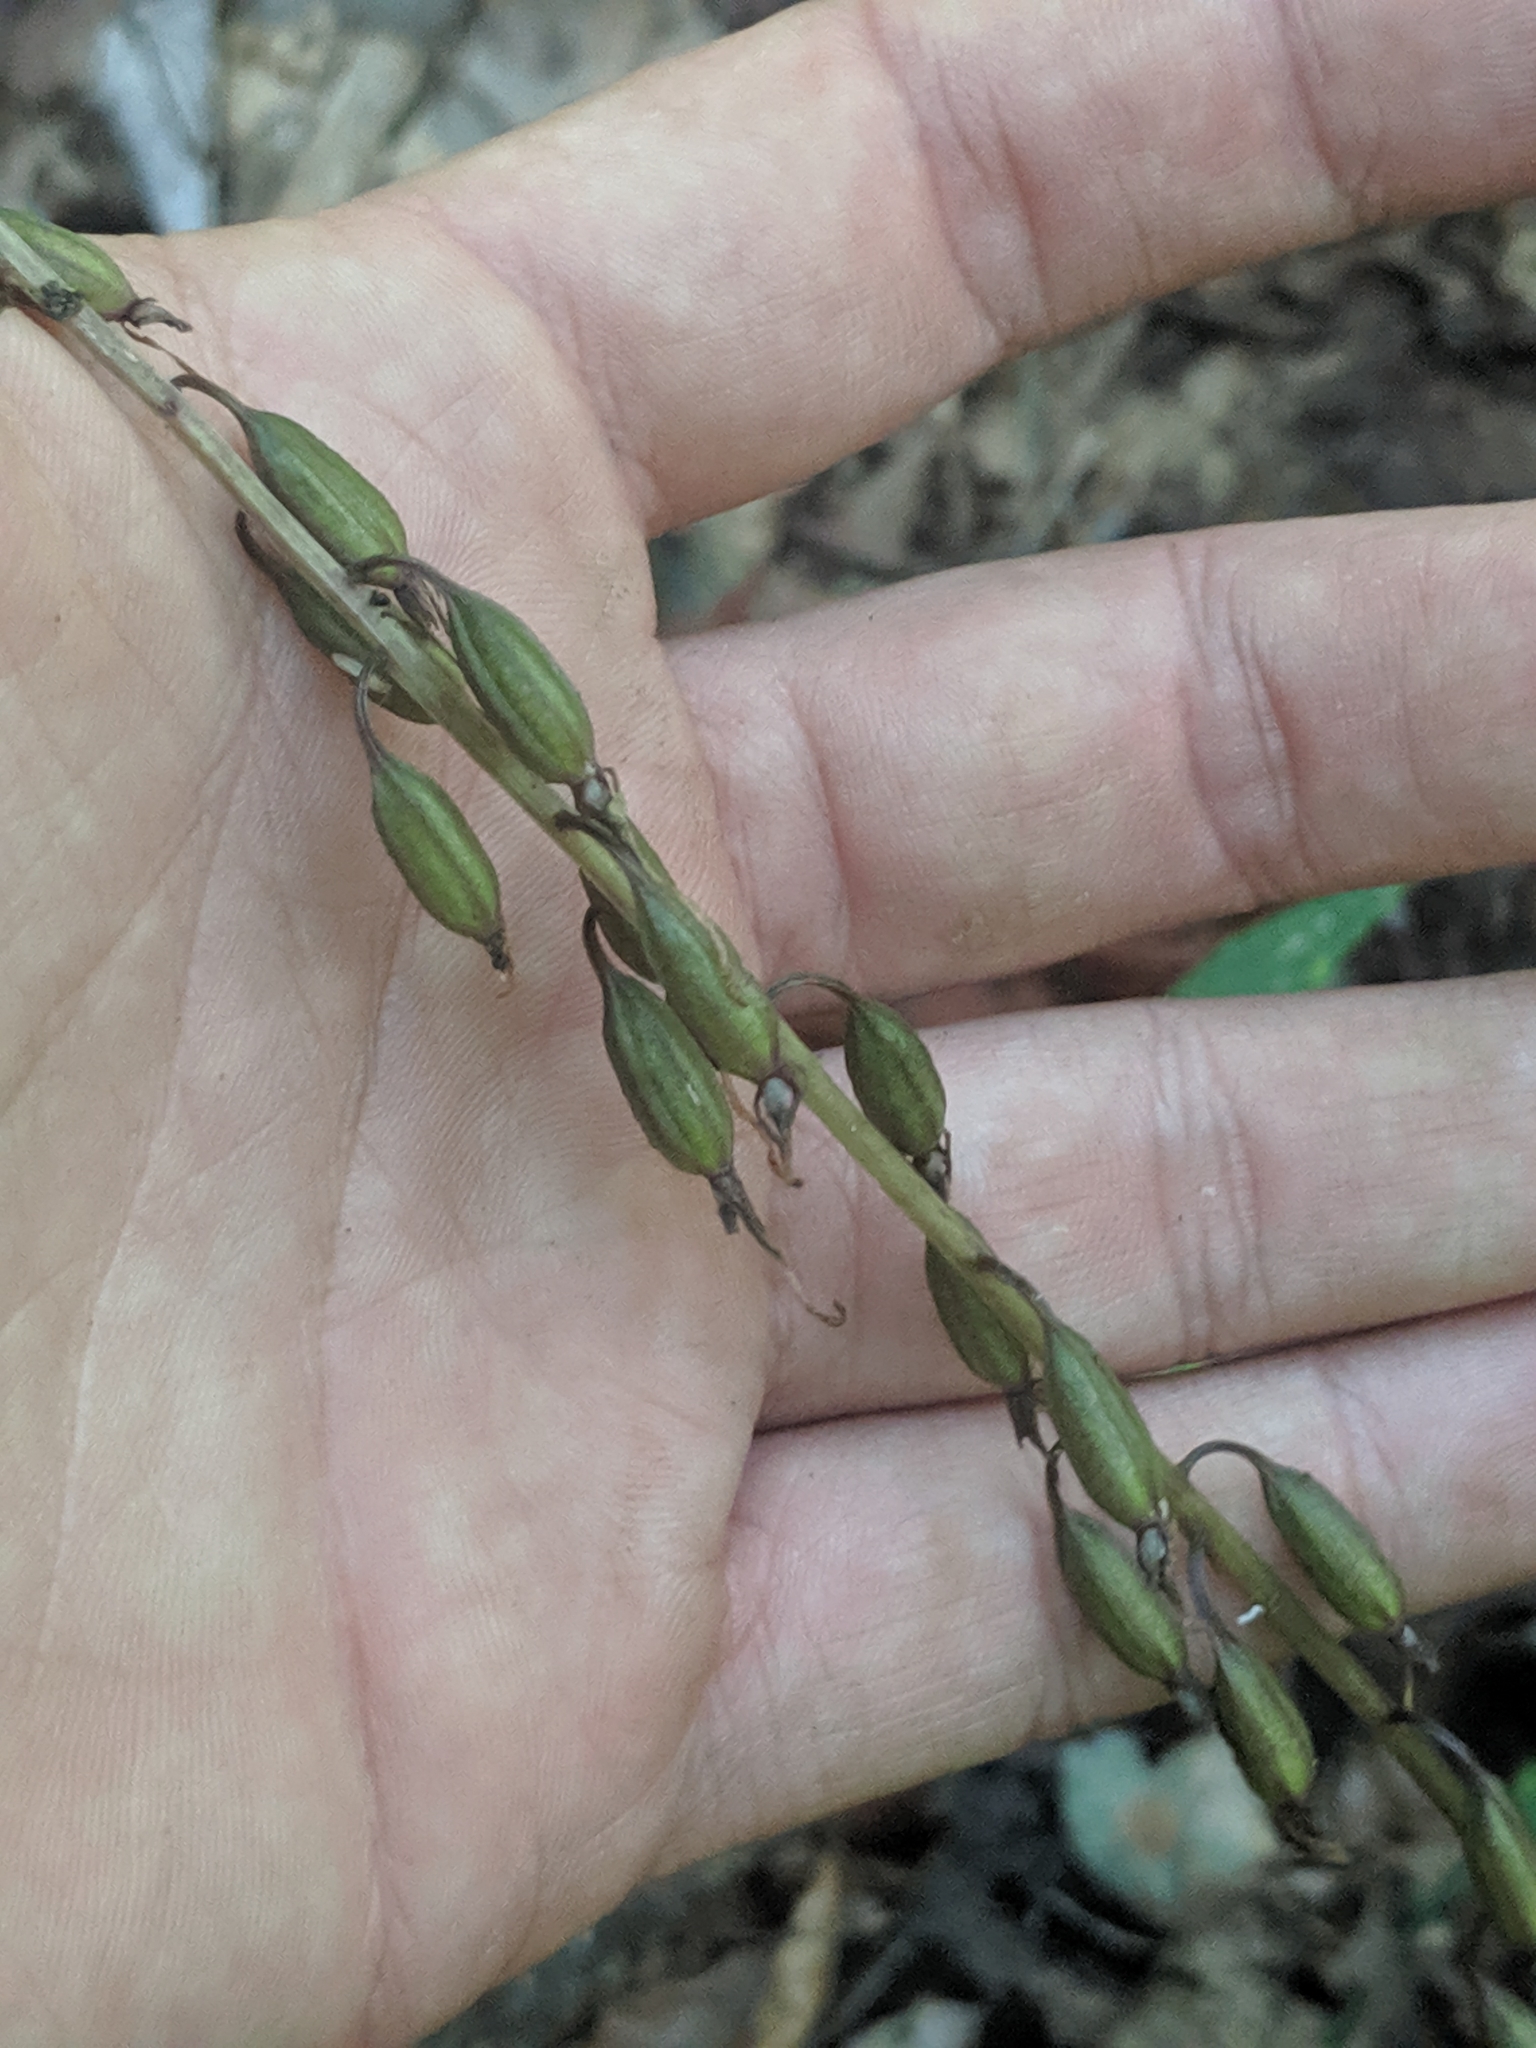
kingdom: Plantae
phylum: Tracheophyta
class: Liliopsida
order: Asparagales
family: Orchidaceae
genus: Tipularia
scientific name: Tipularia discolor
